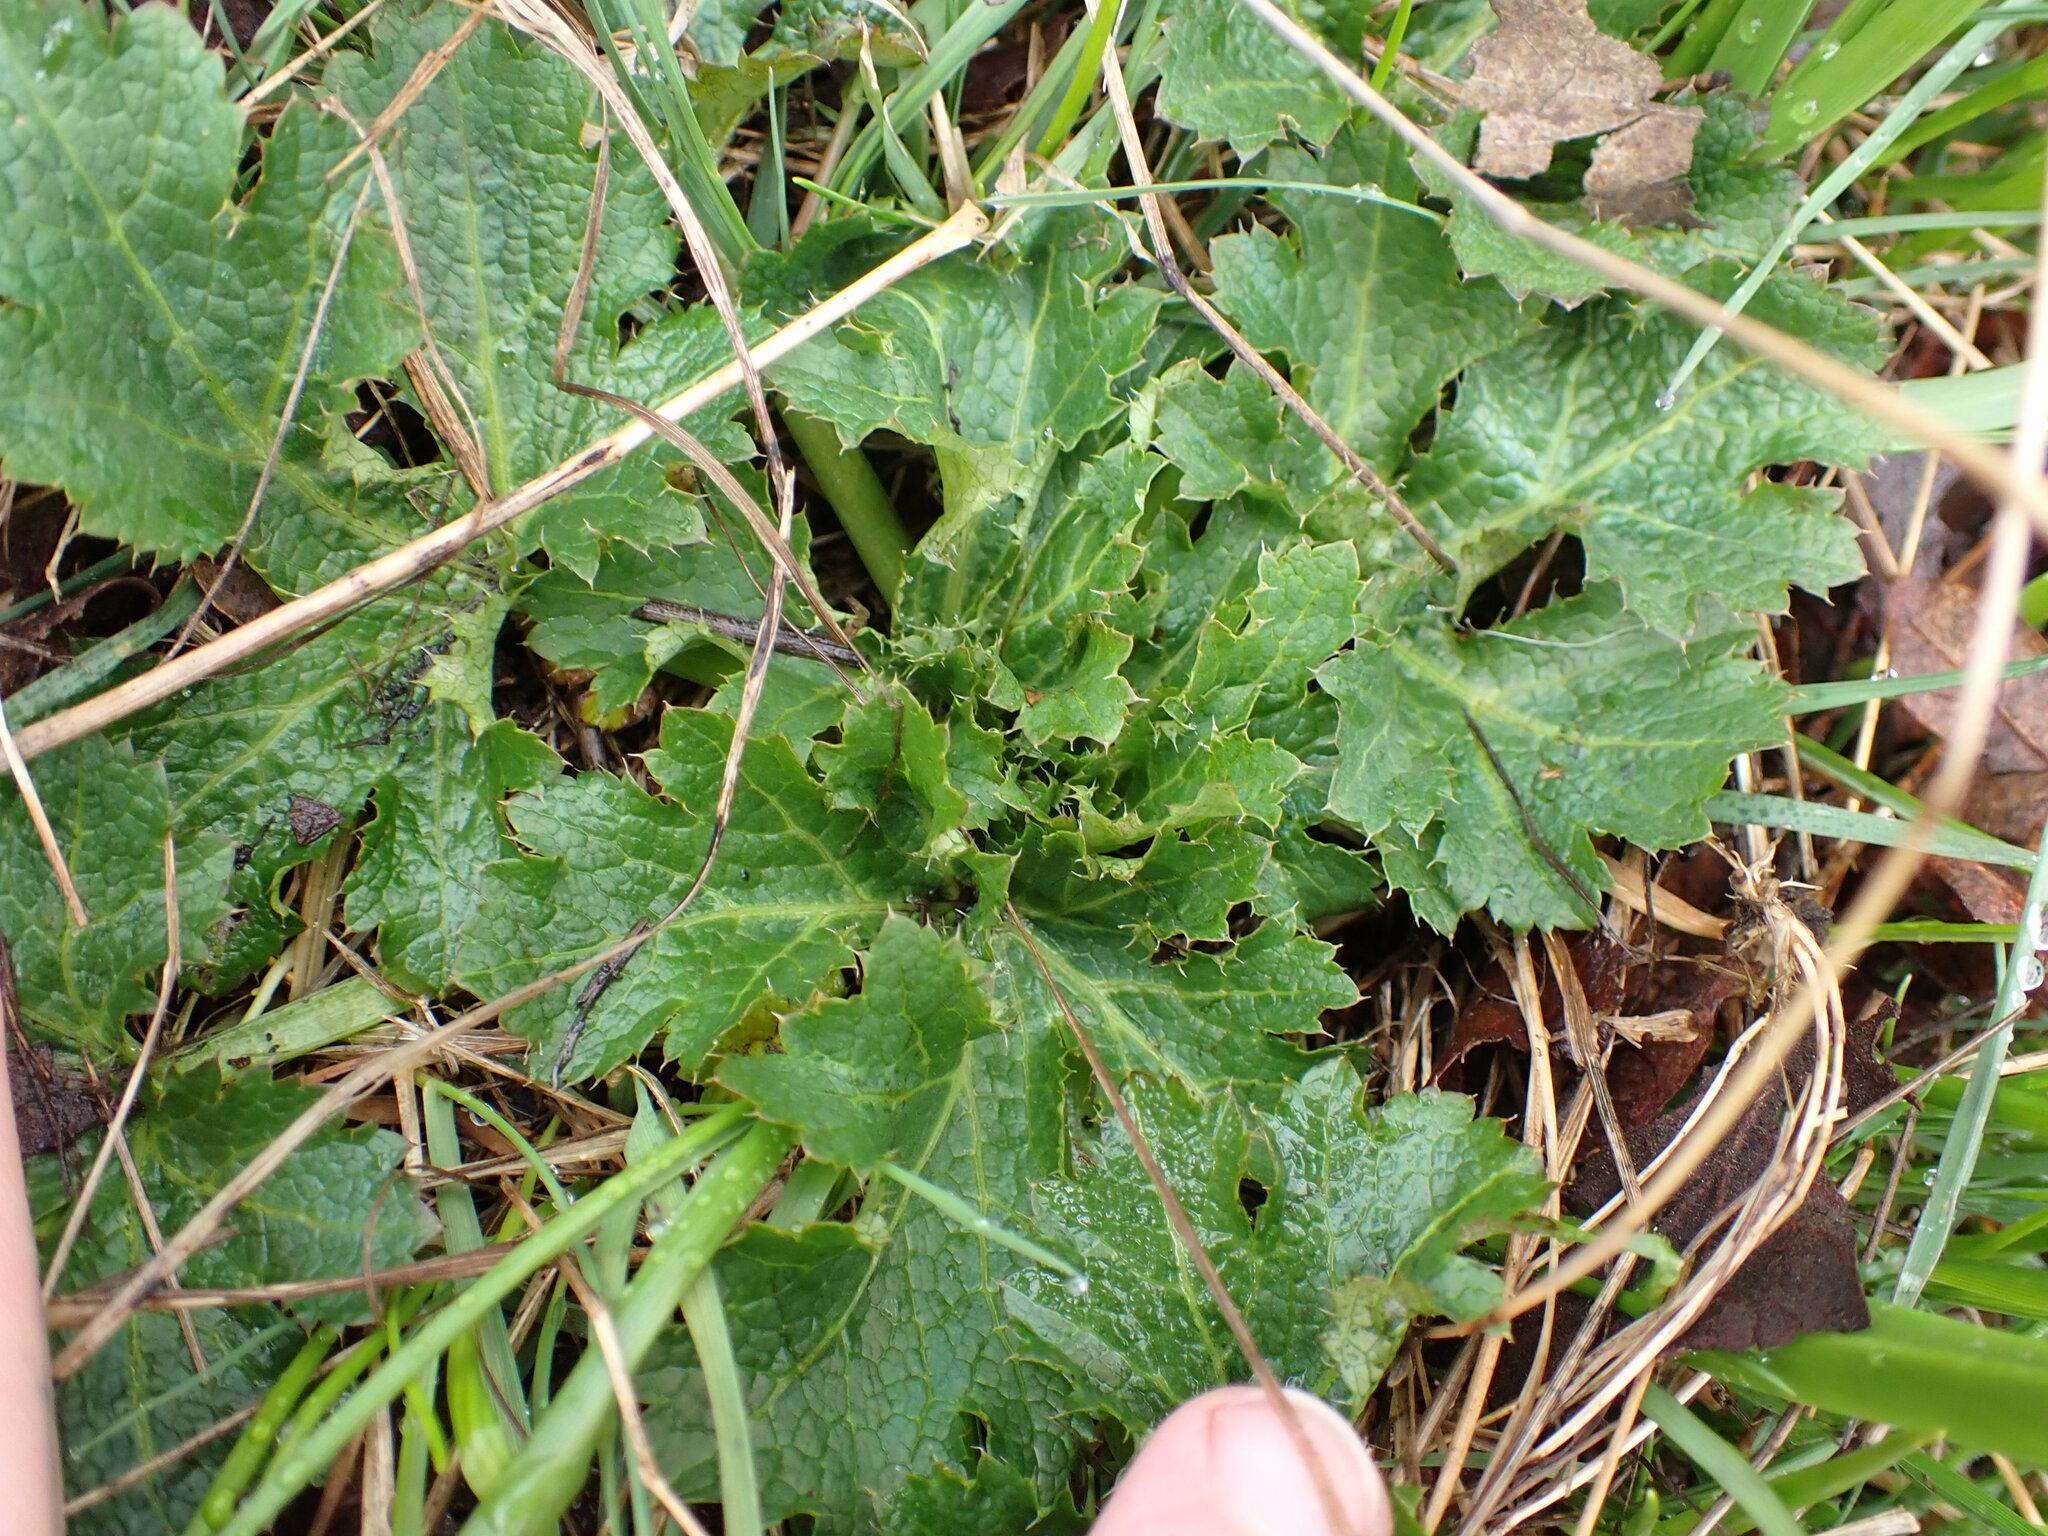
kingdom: Plantae
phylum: Tracheophyta
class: Magnoliopsida
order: Apiales
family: Apiaceae
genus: Sanicula
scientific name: Sanicula crassicaulis
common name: Western snakeroot
